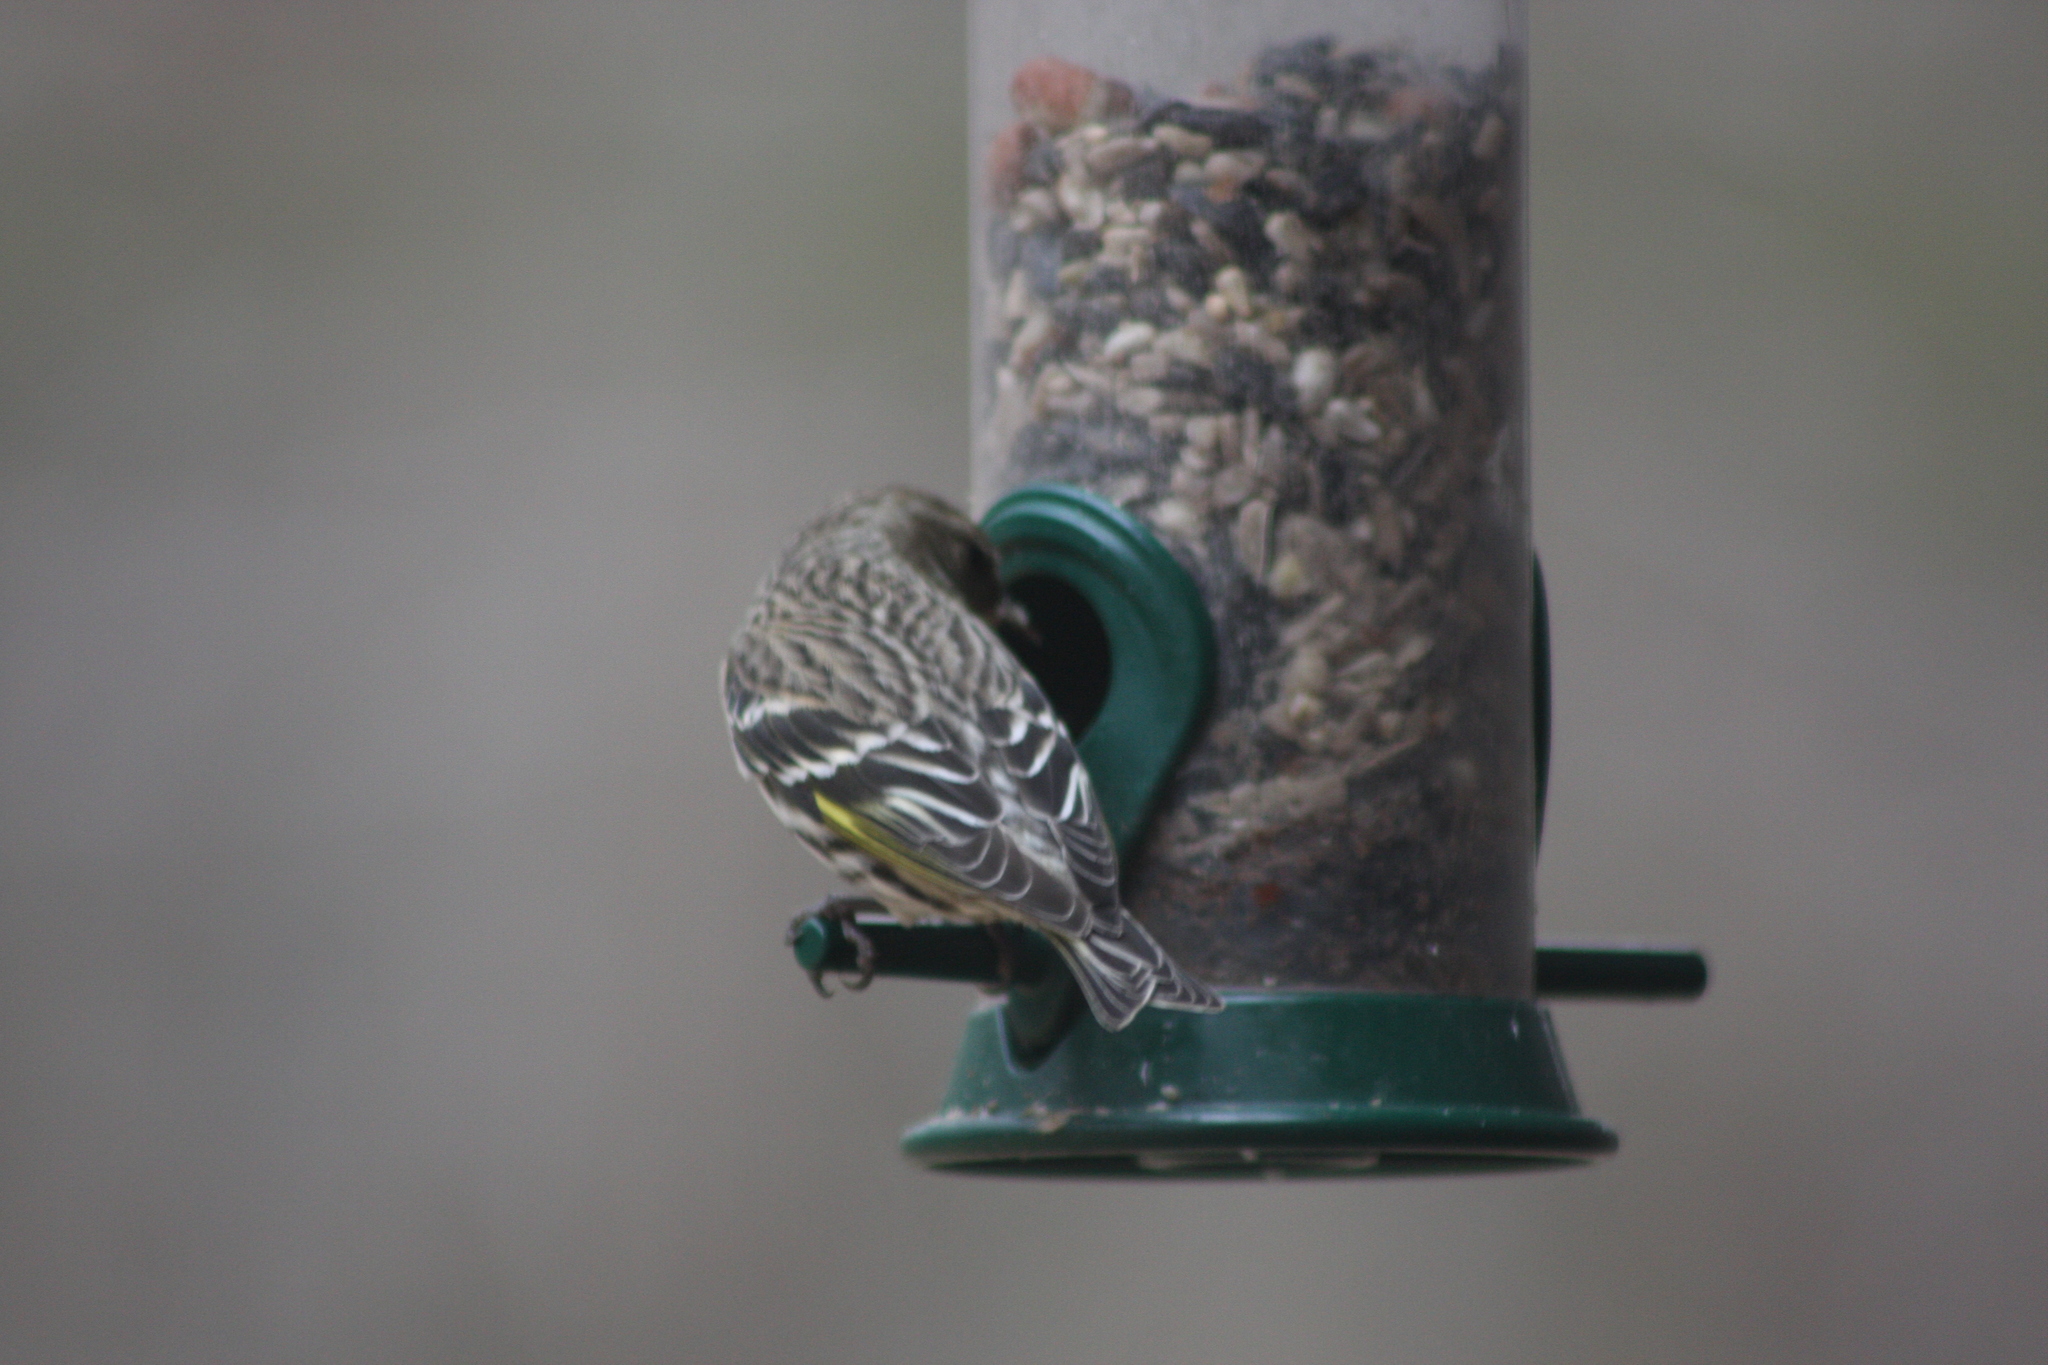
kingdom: Animalia
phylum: Chordata
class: Aves
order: Passeriformes
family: Fringillidae
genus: Spinus
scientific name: Spinus pinus
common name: Pine siskin
